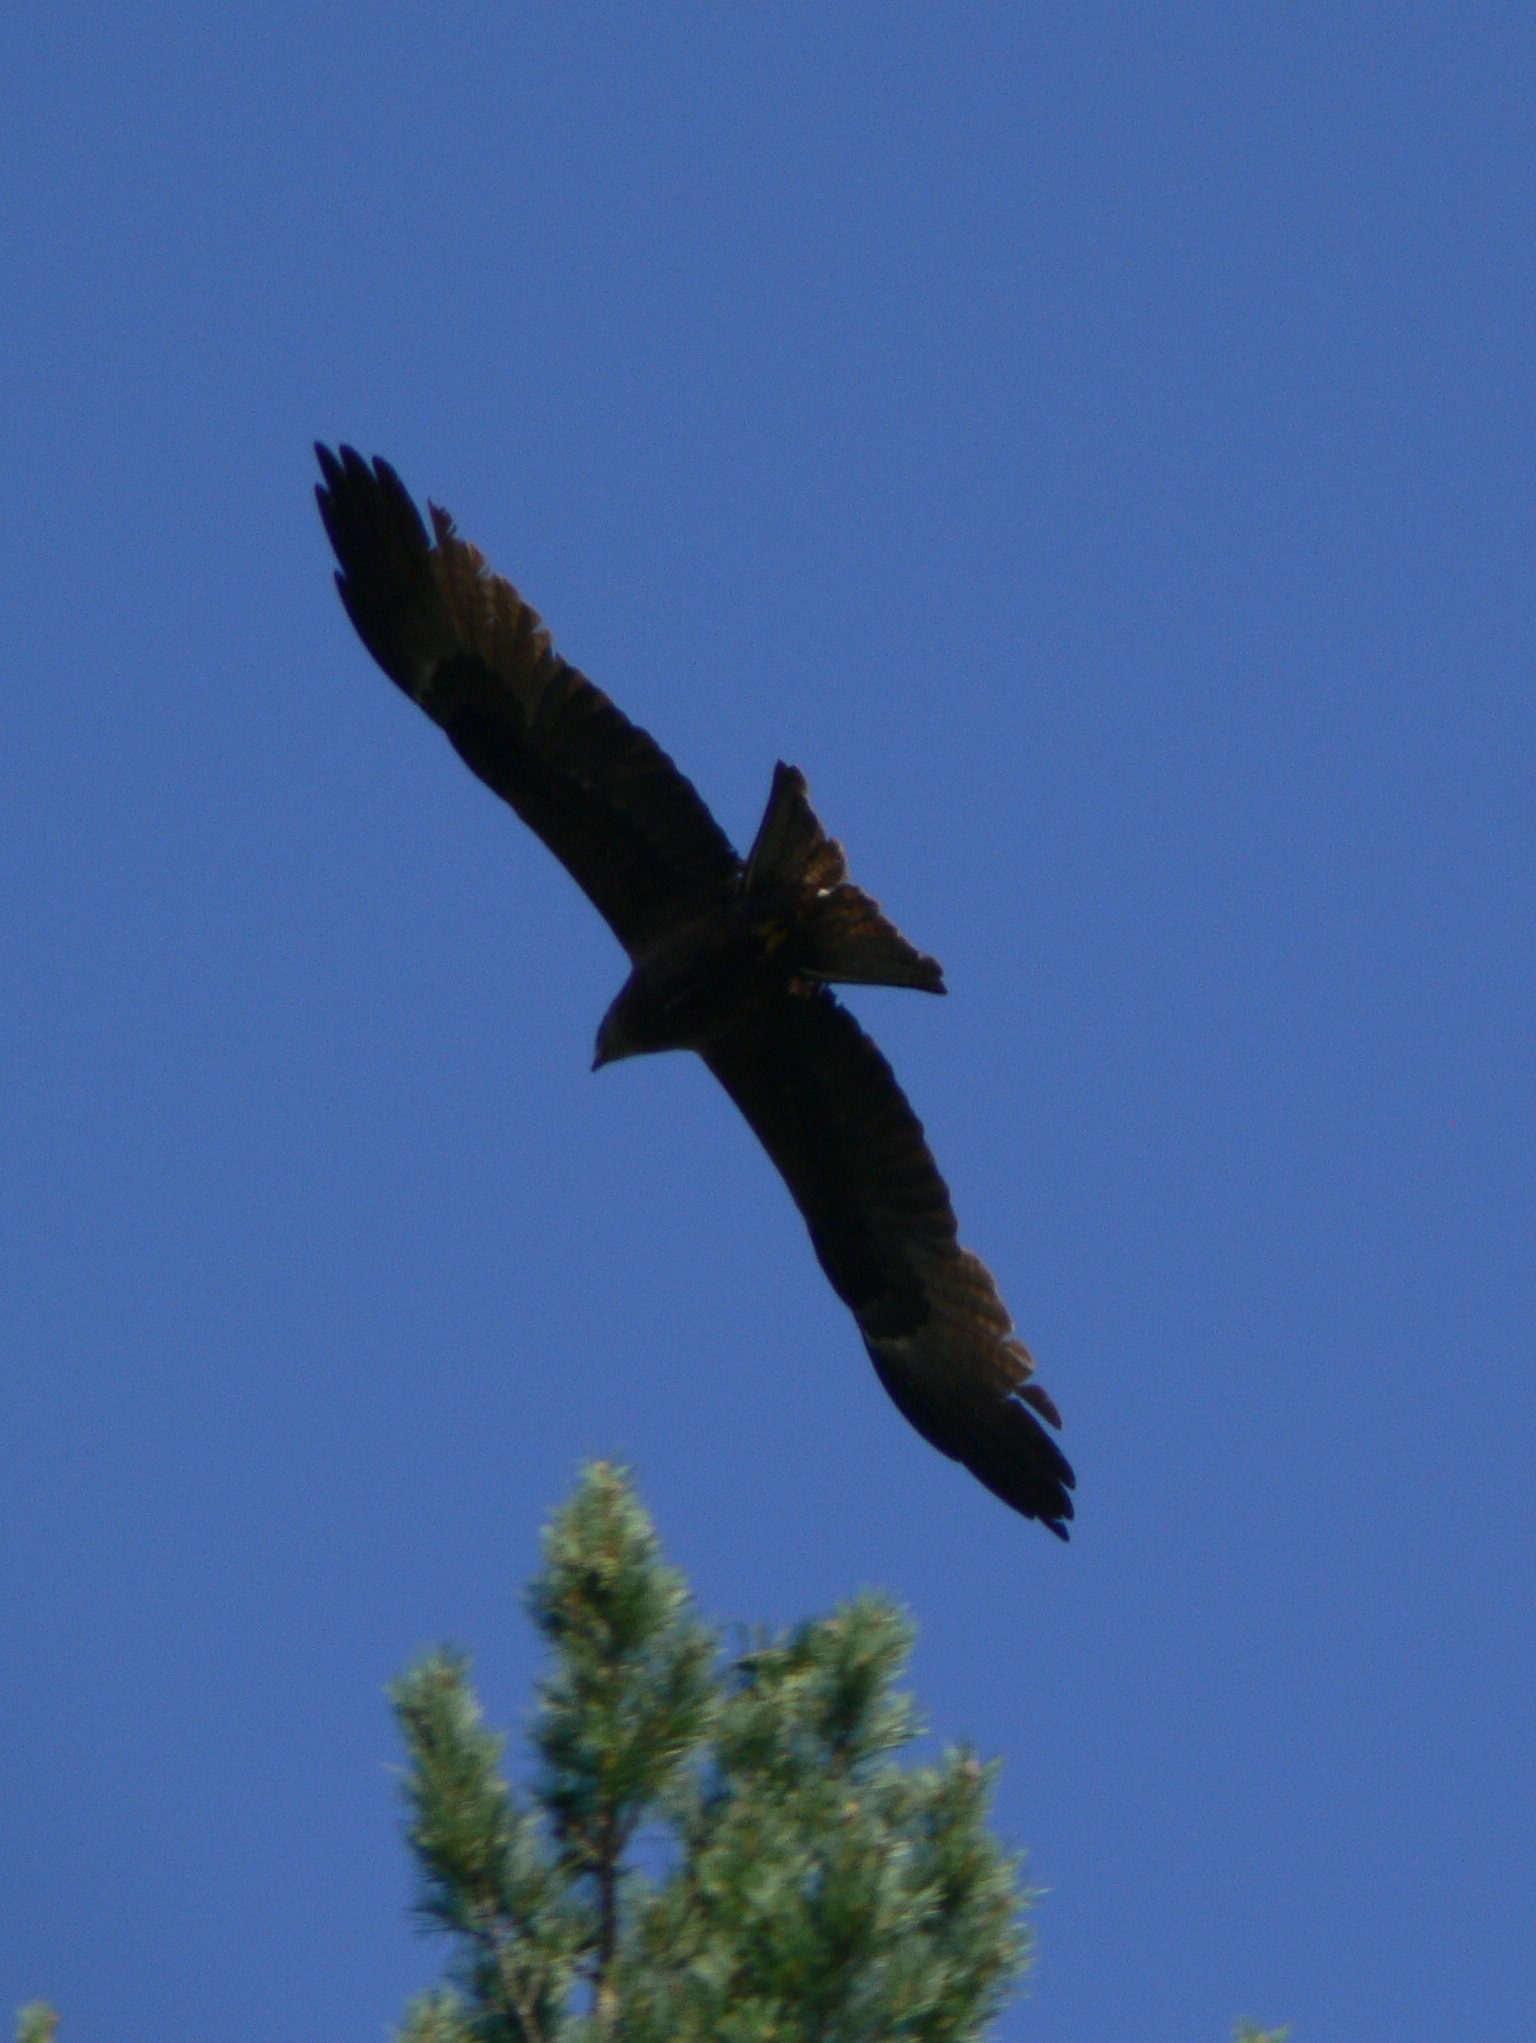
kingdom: Animalia
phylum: Chordata
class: Aves
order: Accipitriformes
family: Accipitridae
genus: Milvus
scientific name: Milvus migrans
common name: Black kite
